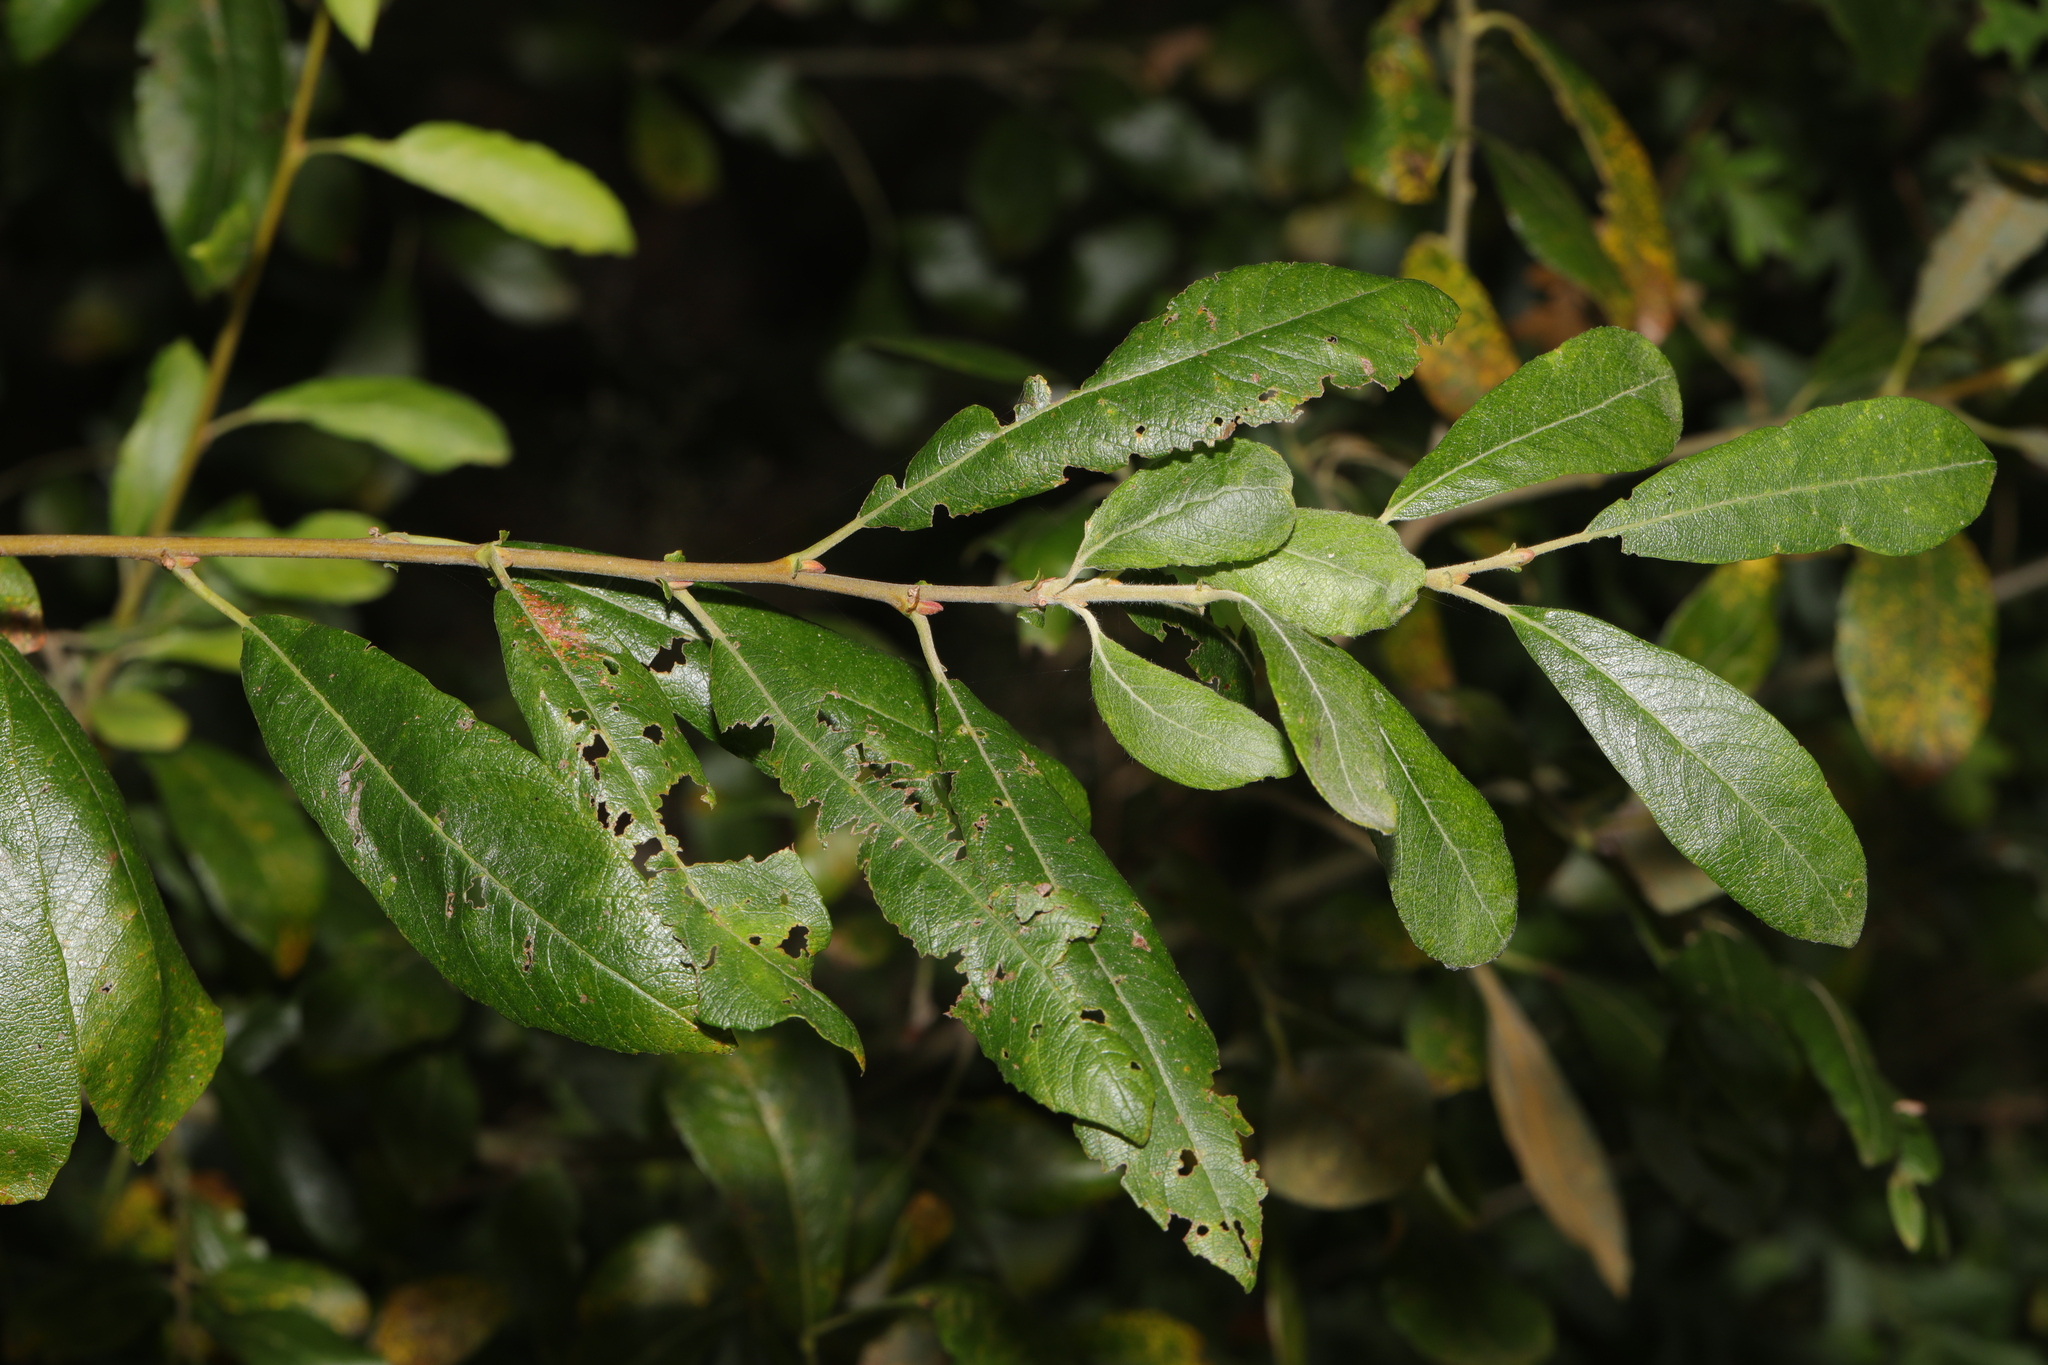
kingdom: Plantae
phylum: Tracheophyta
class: Magnoliopsida
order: Malpighiales
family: Salicaceae
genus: Salix
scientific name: Salix cinerea
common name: Common sallow
